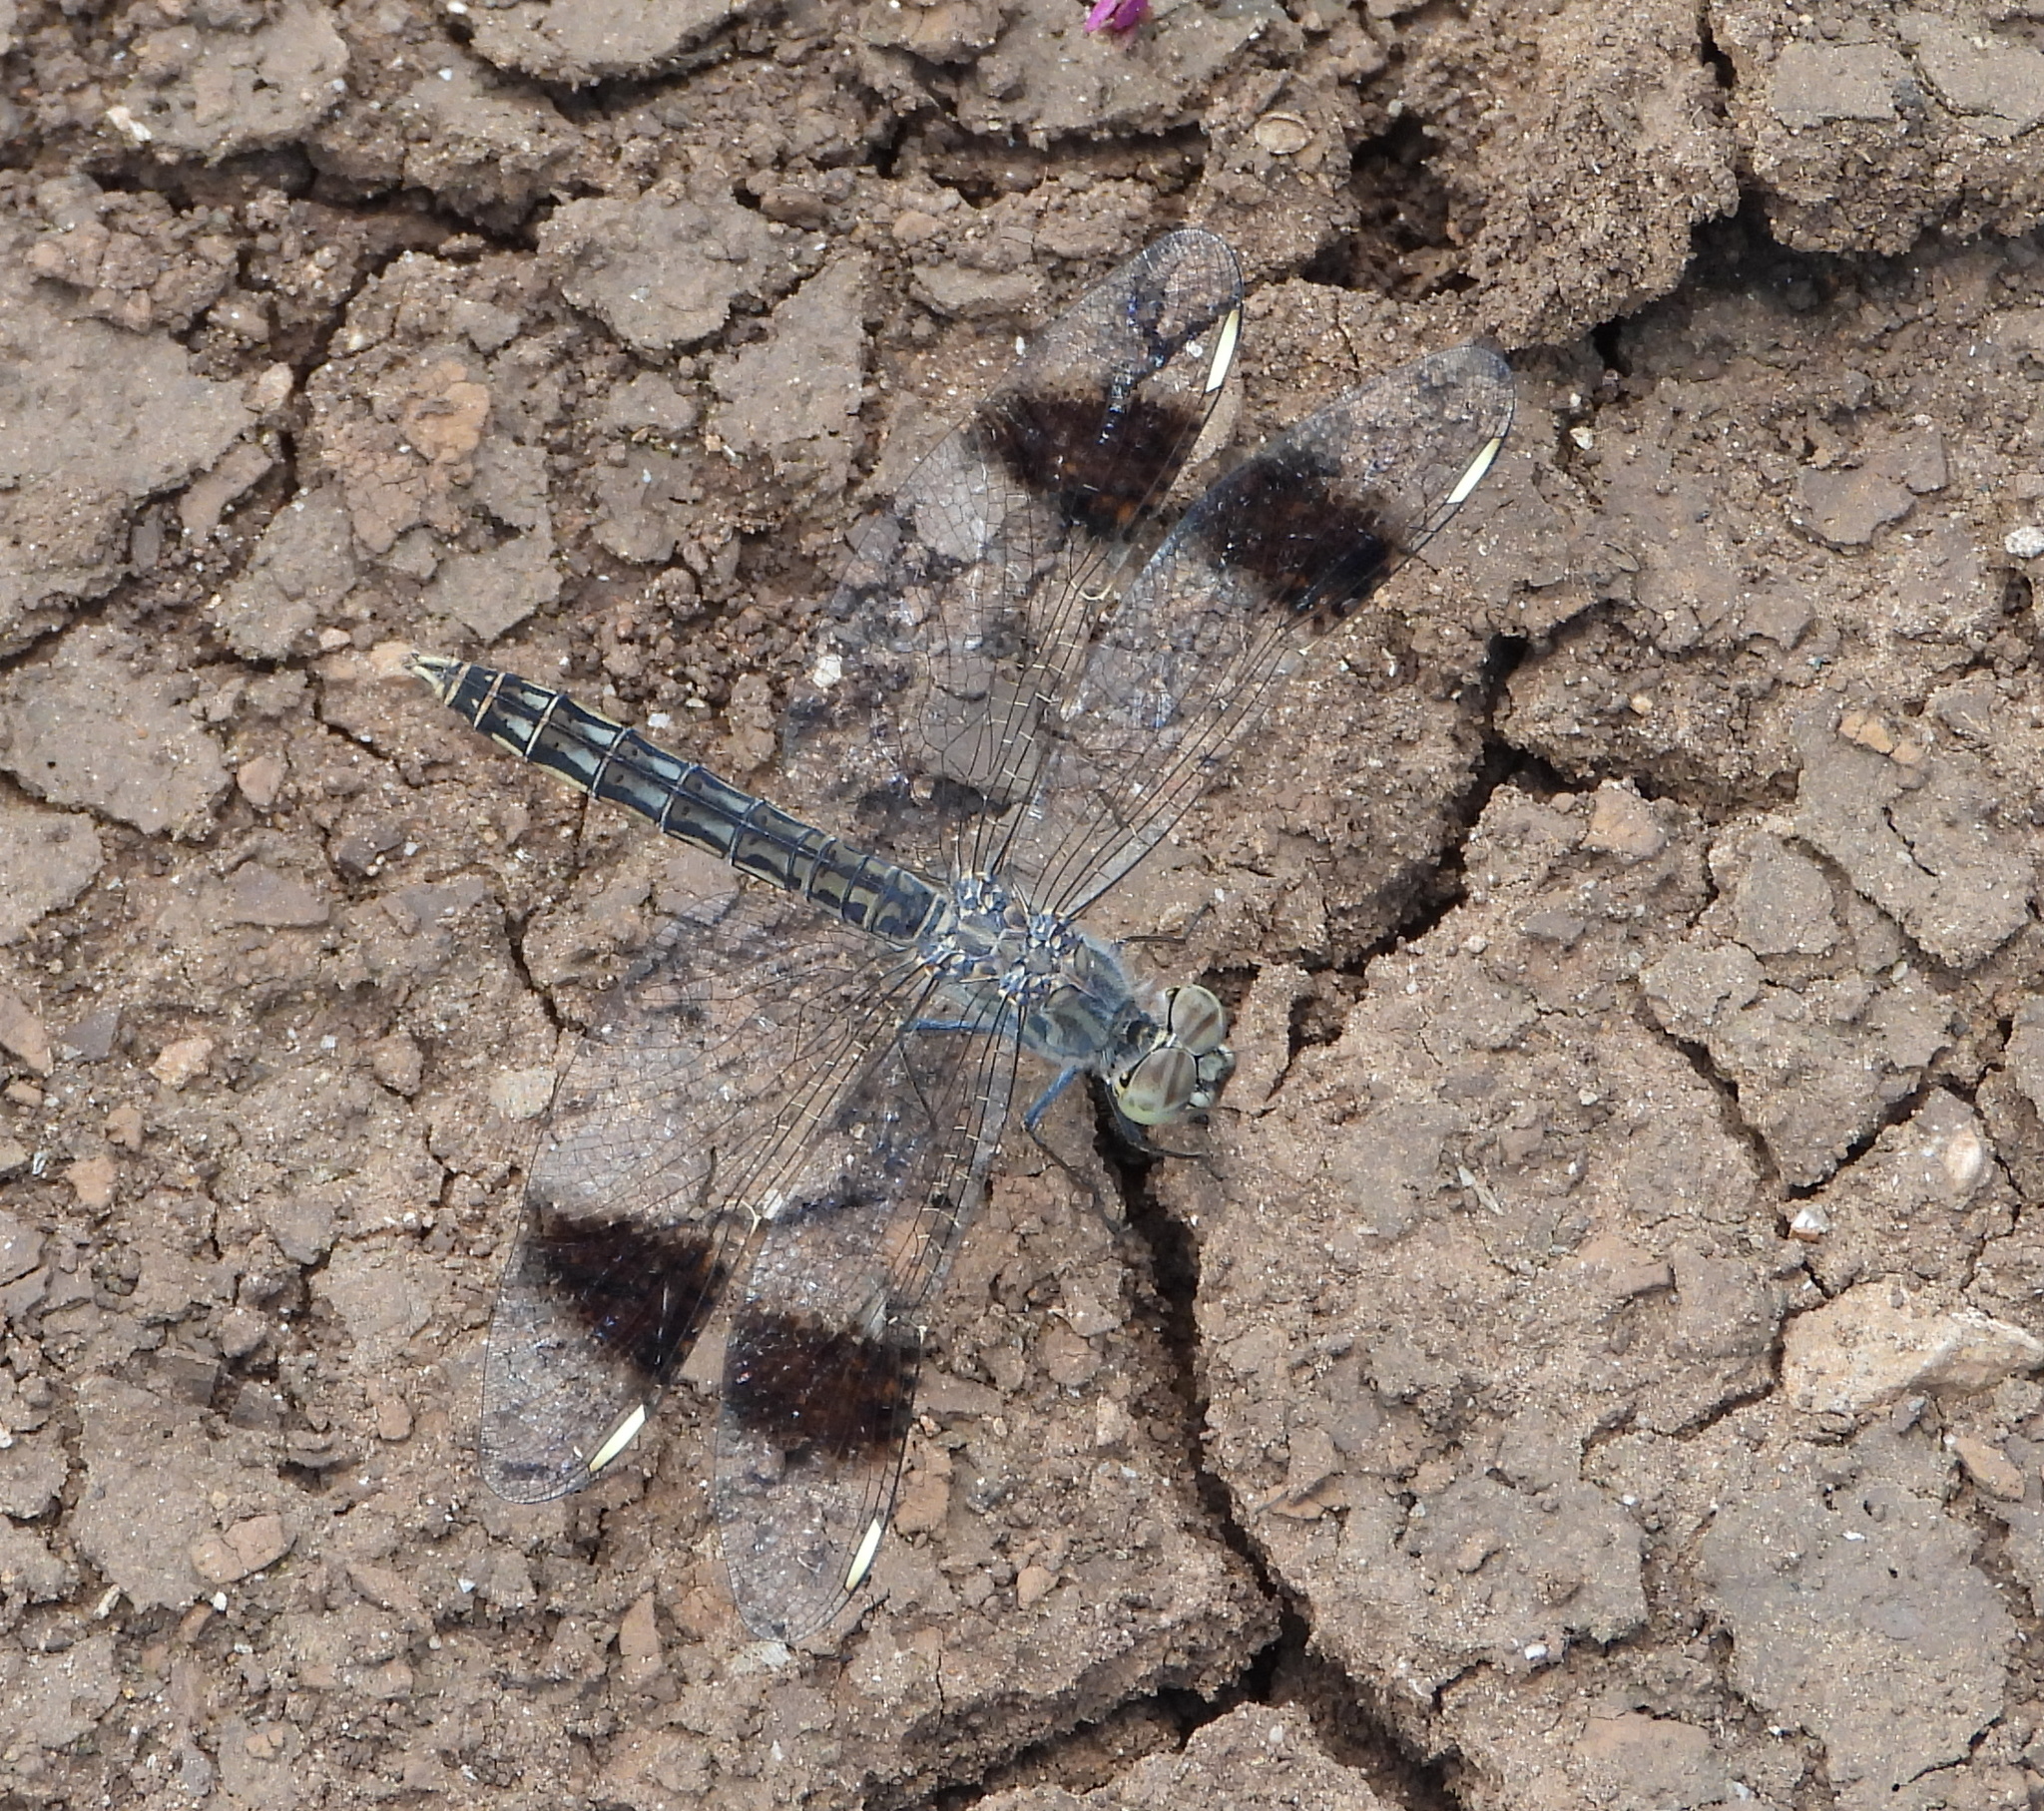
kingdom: Animalia
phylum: Arthropoda
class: Insecta
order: Odonata
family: Libellulidae
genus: Brachythemis
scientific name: Brachythemis leucosticta
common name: Banded groundling
